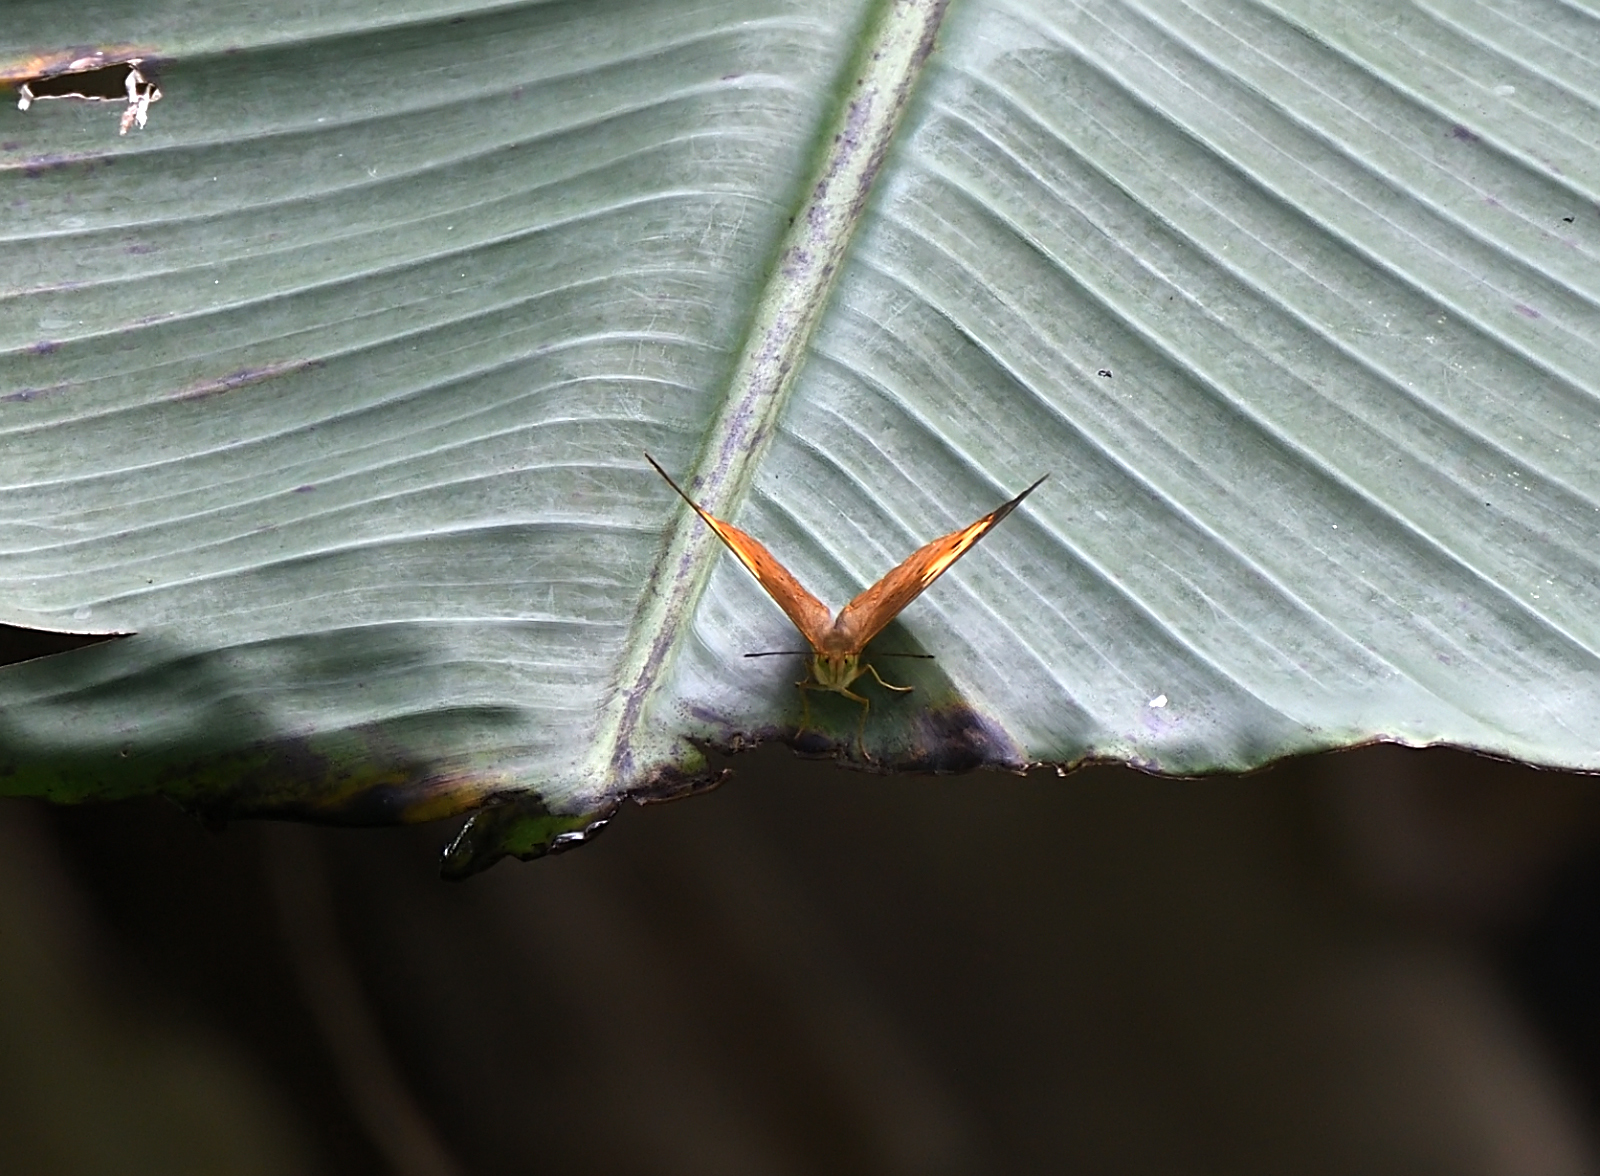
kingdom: Animalia
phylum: Arthropoda
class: Insecta
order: Lepidoptera
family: Nymphalidae
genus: Cupha
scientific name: Cupha erymanthis
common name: Rustic
